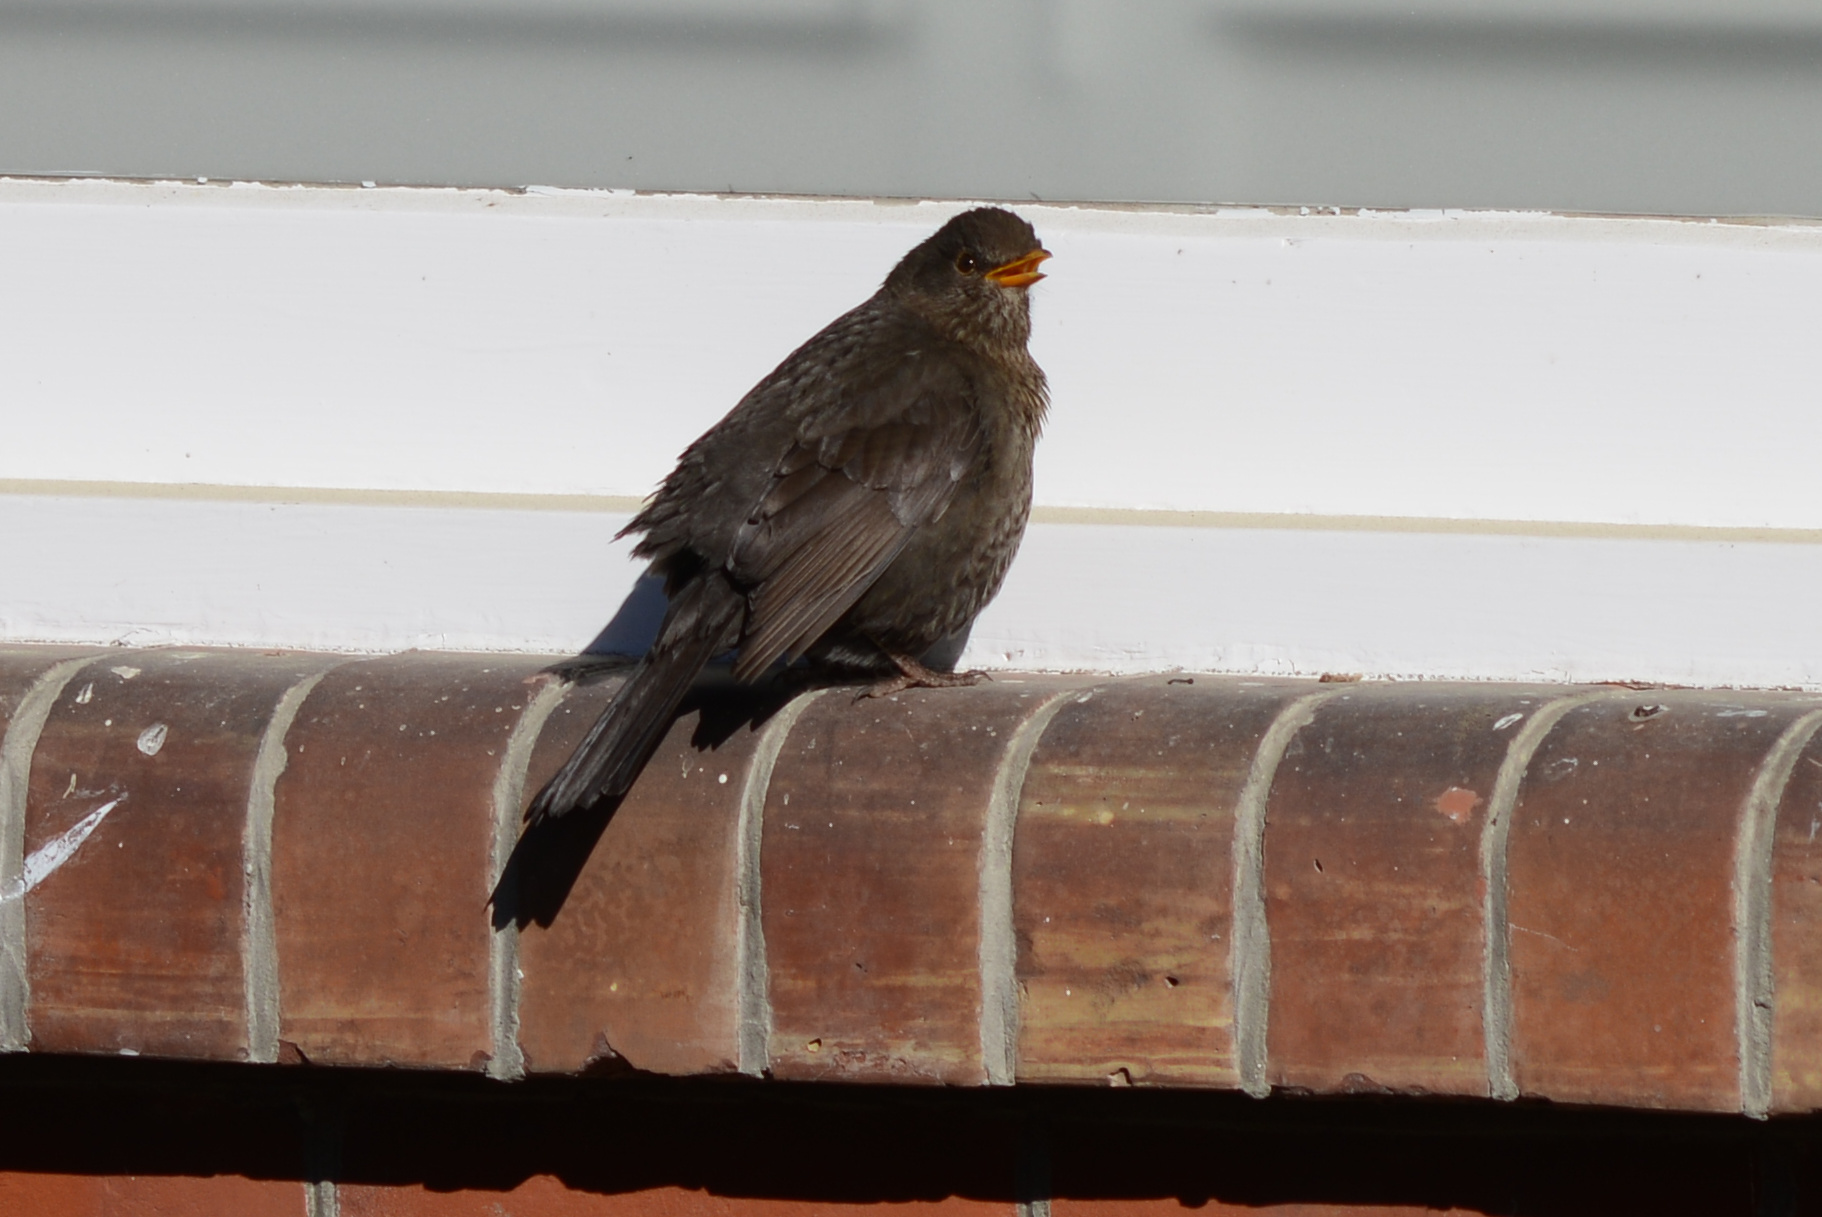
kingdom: Animalia
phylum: Chordata
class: Aves
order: Passeriformes
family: Turdidae
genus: Turdus
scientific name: Turdus merula
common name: Common blackbird
